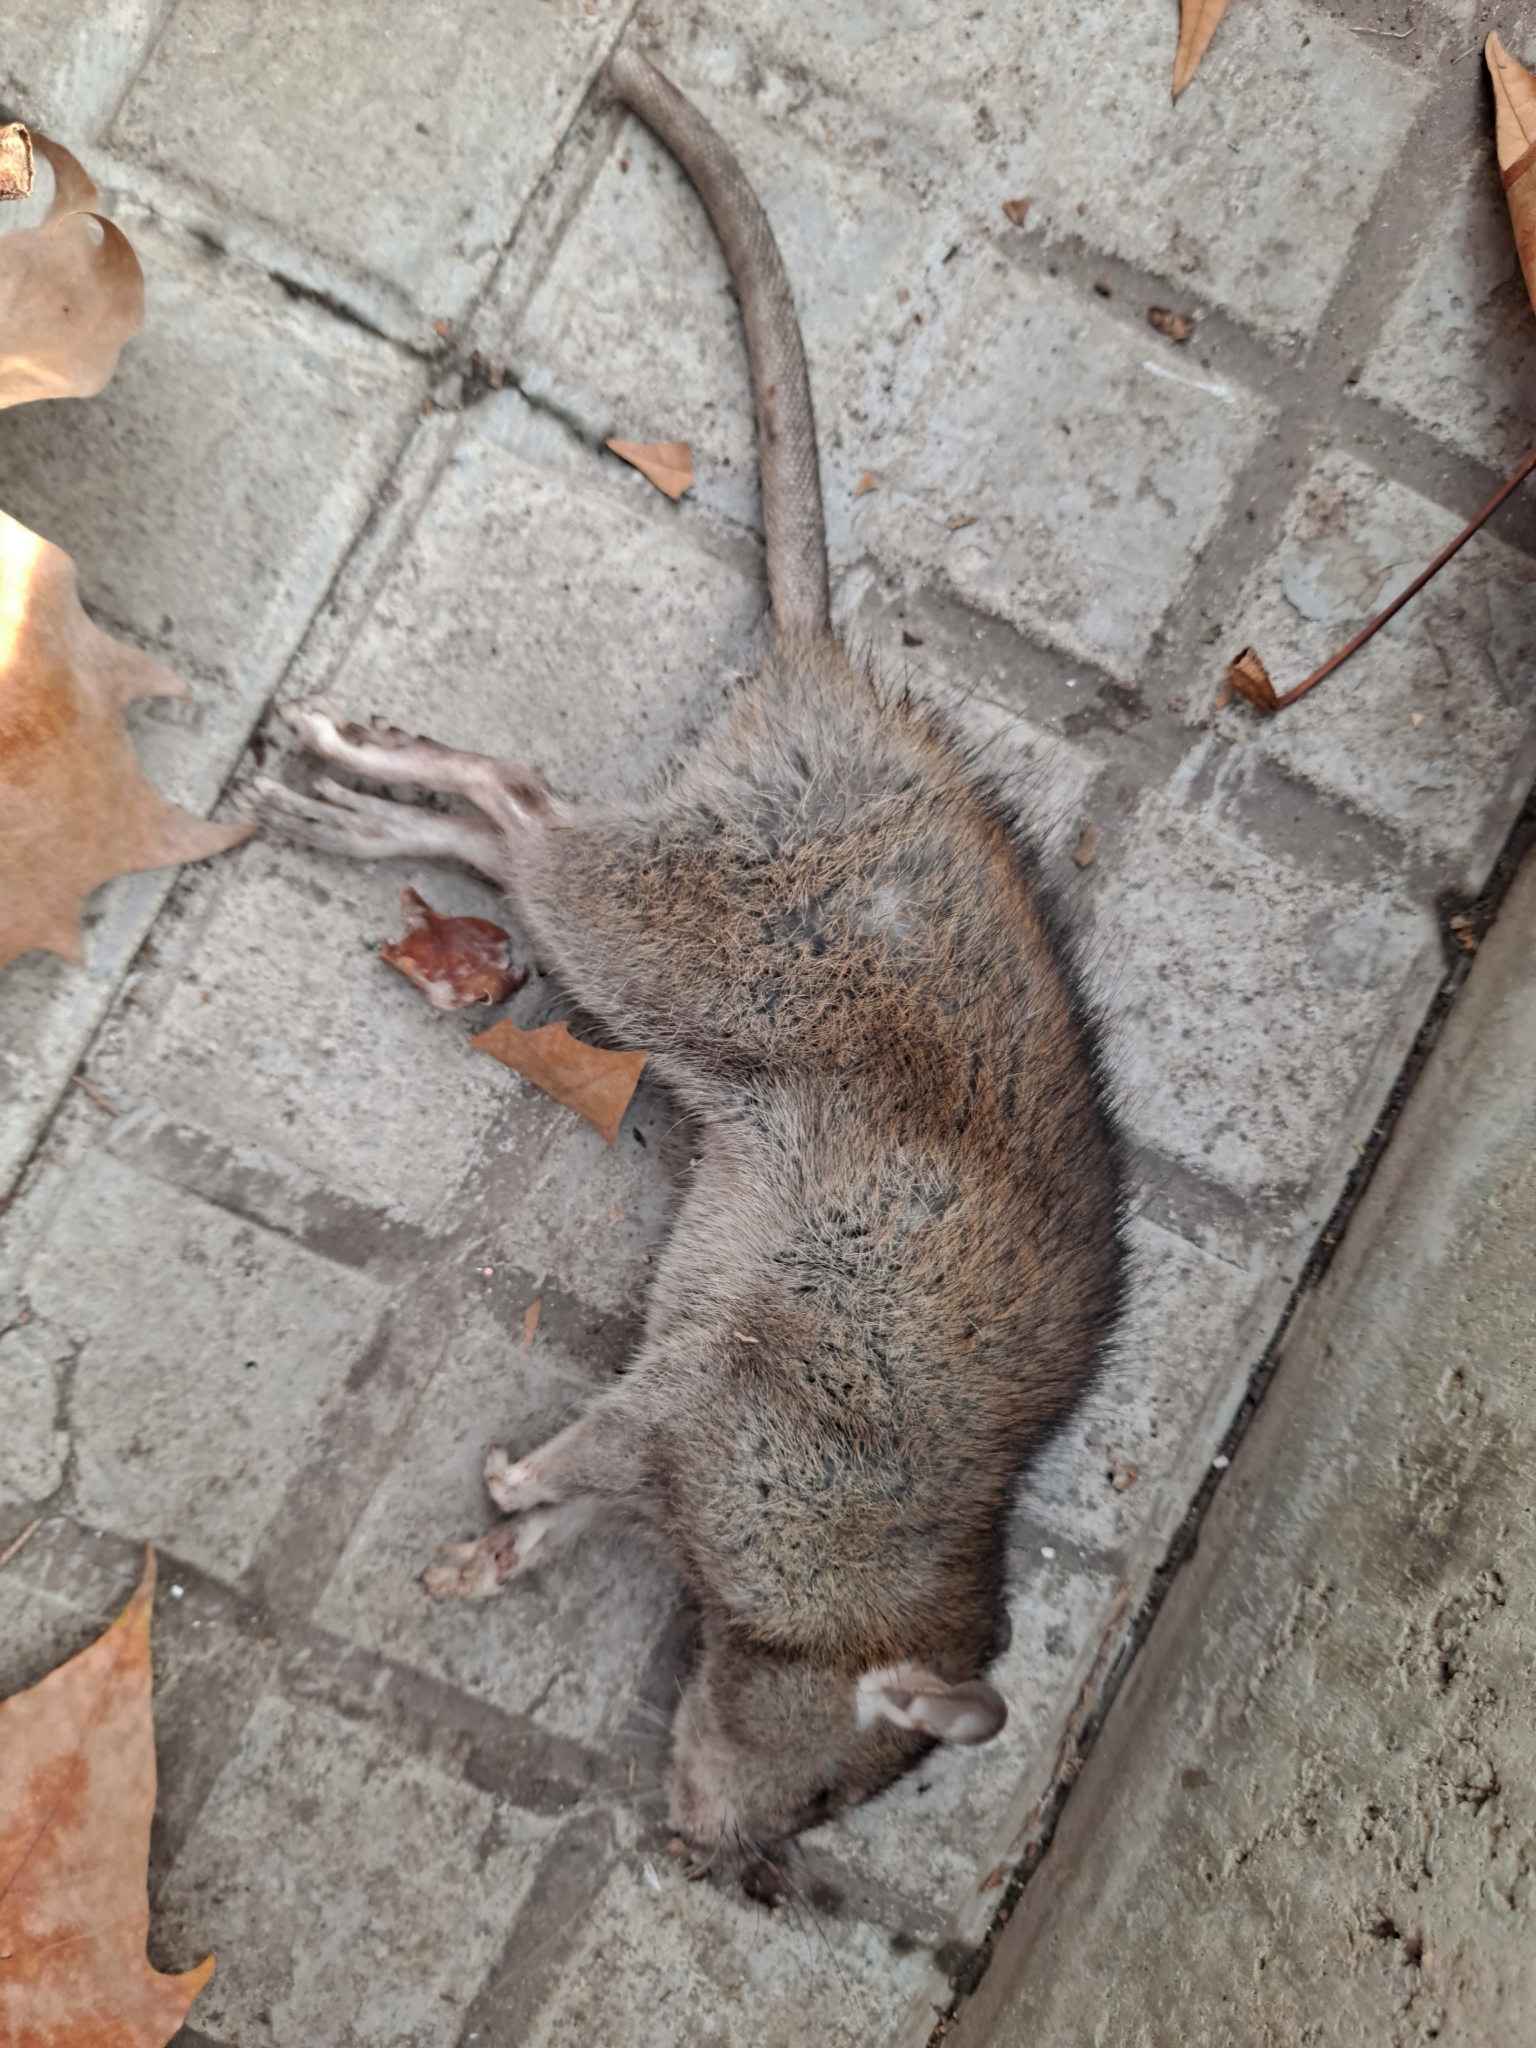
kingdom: Animalia
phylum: Chordata
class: Mammalia
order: Rodentia
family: Muridae
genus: Rattus
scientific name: Rattus norvegicus
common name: Brown rat
